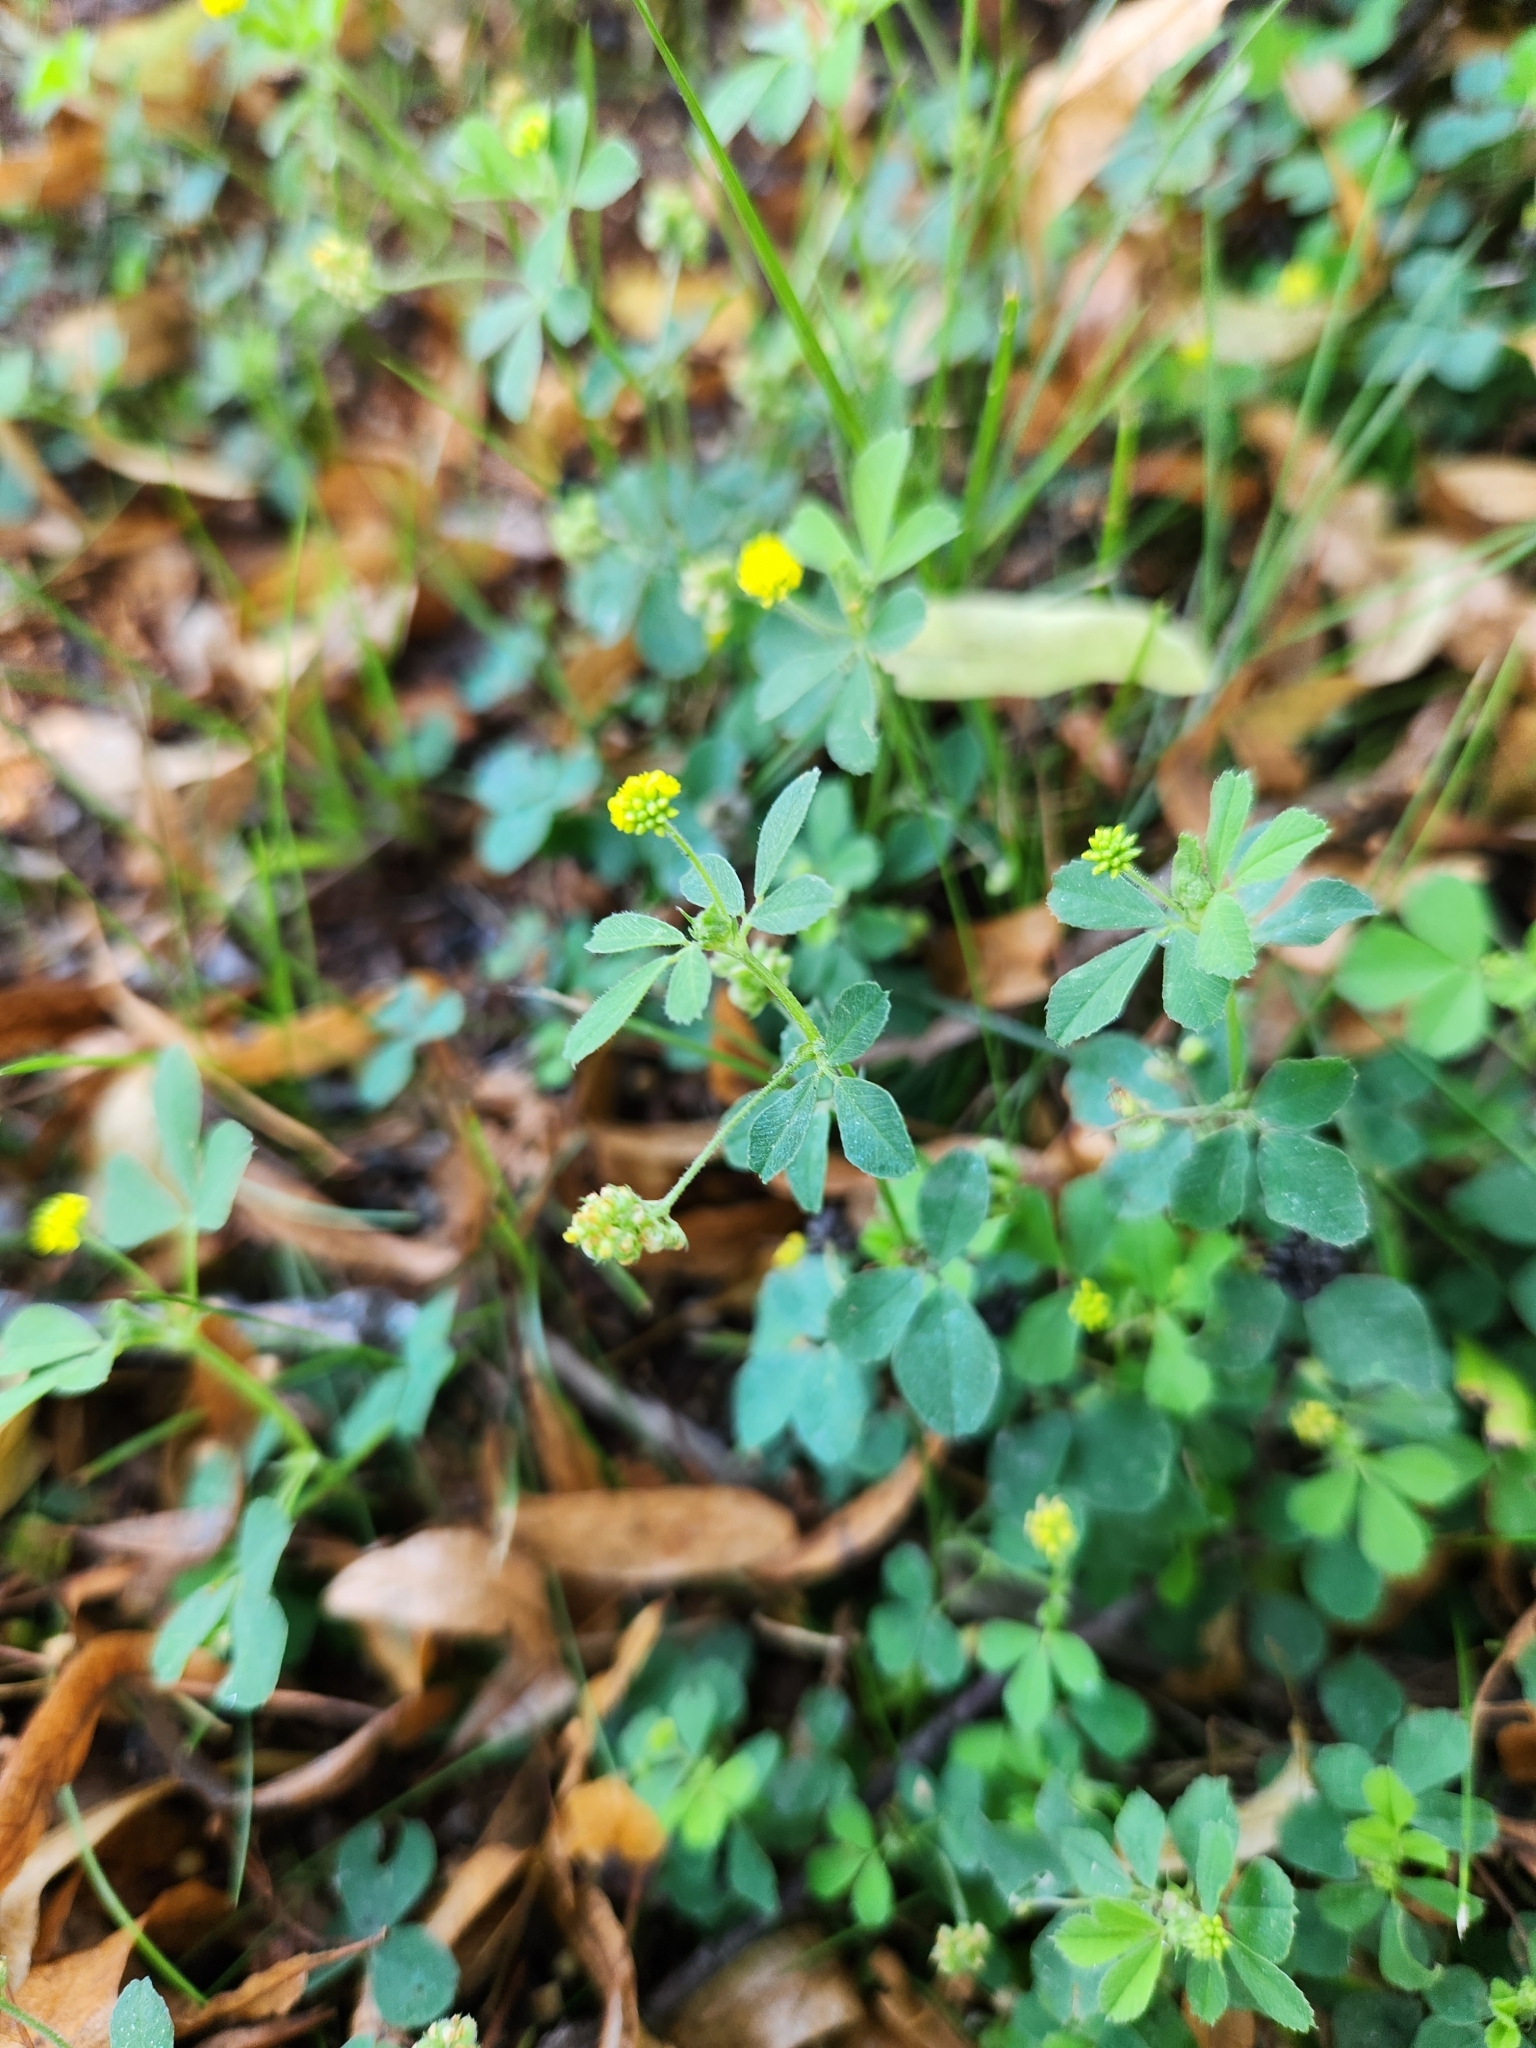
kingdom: Plantae
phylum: Tracheophyta
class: Magnoliopsida
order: Fabales
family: Fabaceae
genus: Medicago
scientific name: Medicago lupulina
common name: Black medick
